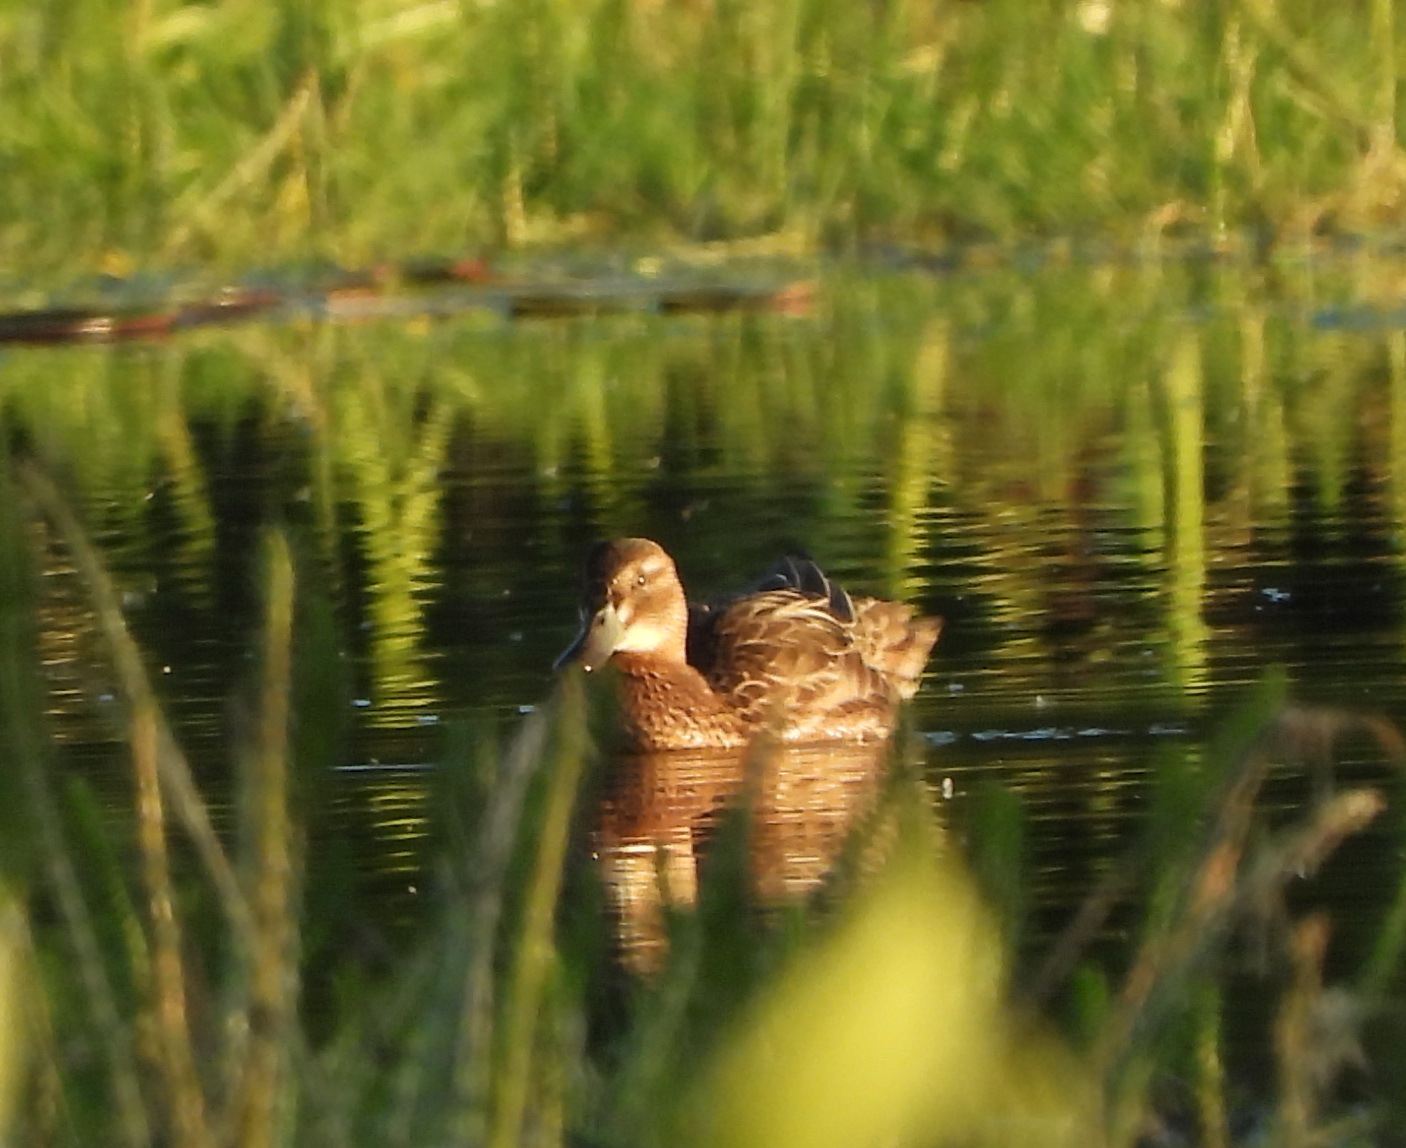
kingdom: Animalia
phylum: Chordata
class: Aves
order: Anseriformes
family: Anatidae
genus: Spatula
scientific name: Spatula querquedula
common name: Garganey
